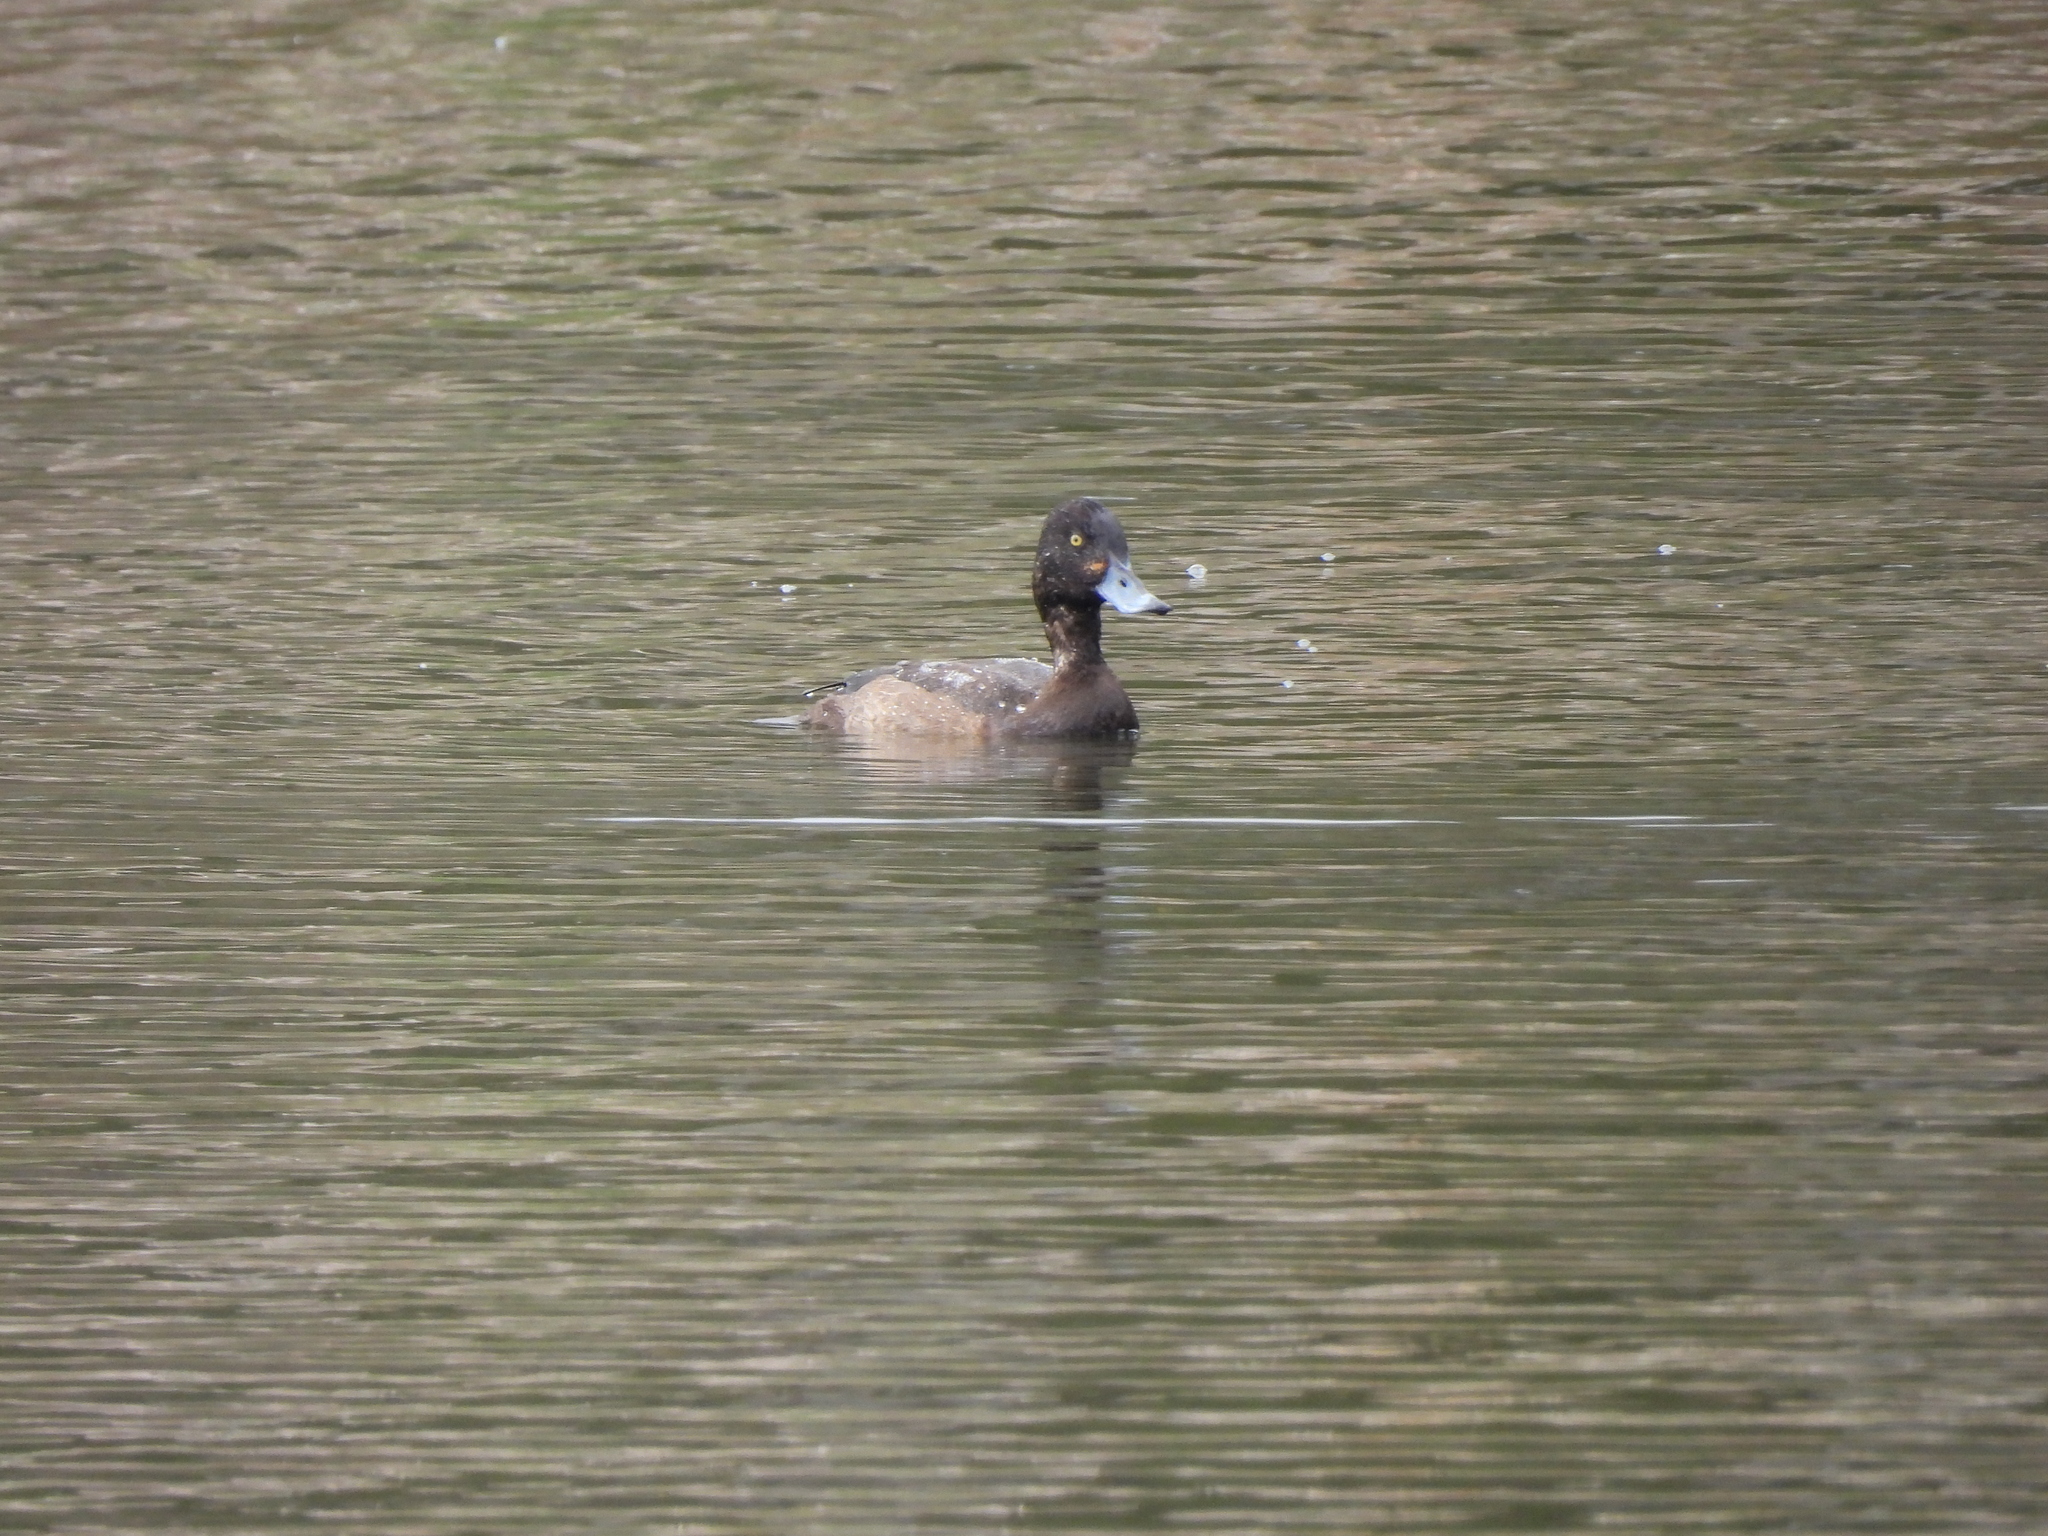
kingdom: Animalia
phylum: Chordata
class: Aves
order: Anseriformes
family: Anatidae
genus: Aythya
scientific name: Aythya affinis
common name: Lesser scaup
